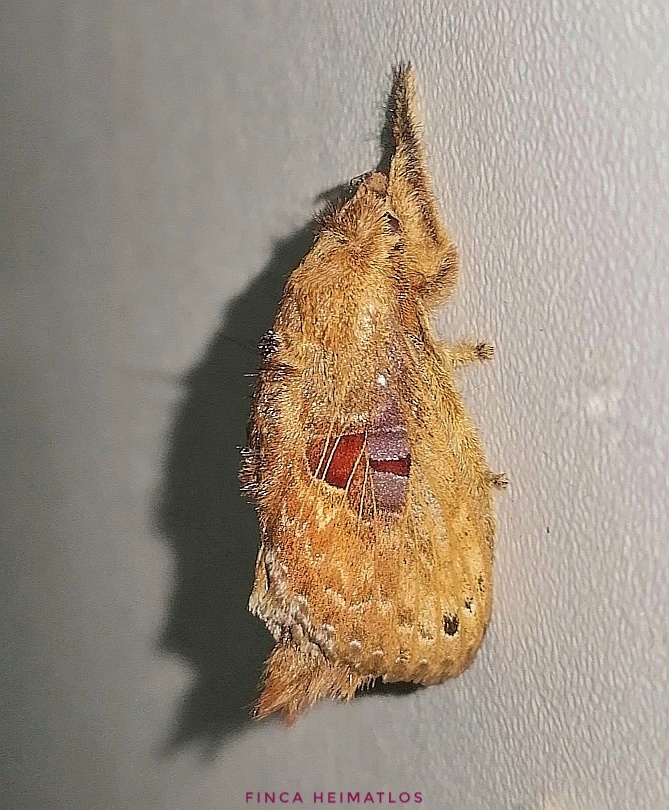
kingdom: Animalia
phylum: Arthropoda
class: Insecta
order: Lepidoptera
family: Lasiocampidae
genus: Labedera
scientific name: Labedera fuscicaudata
